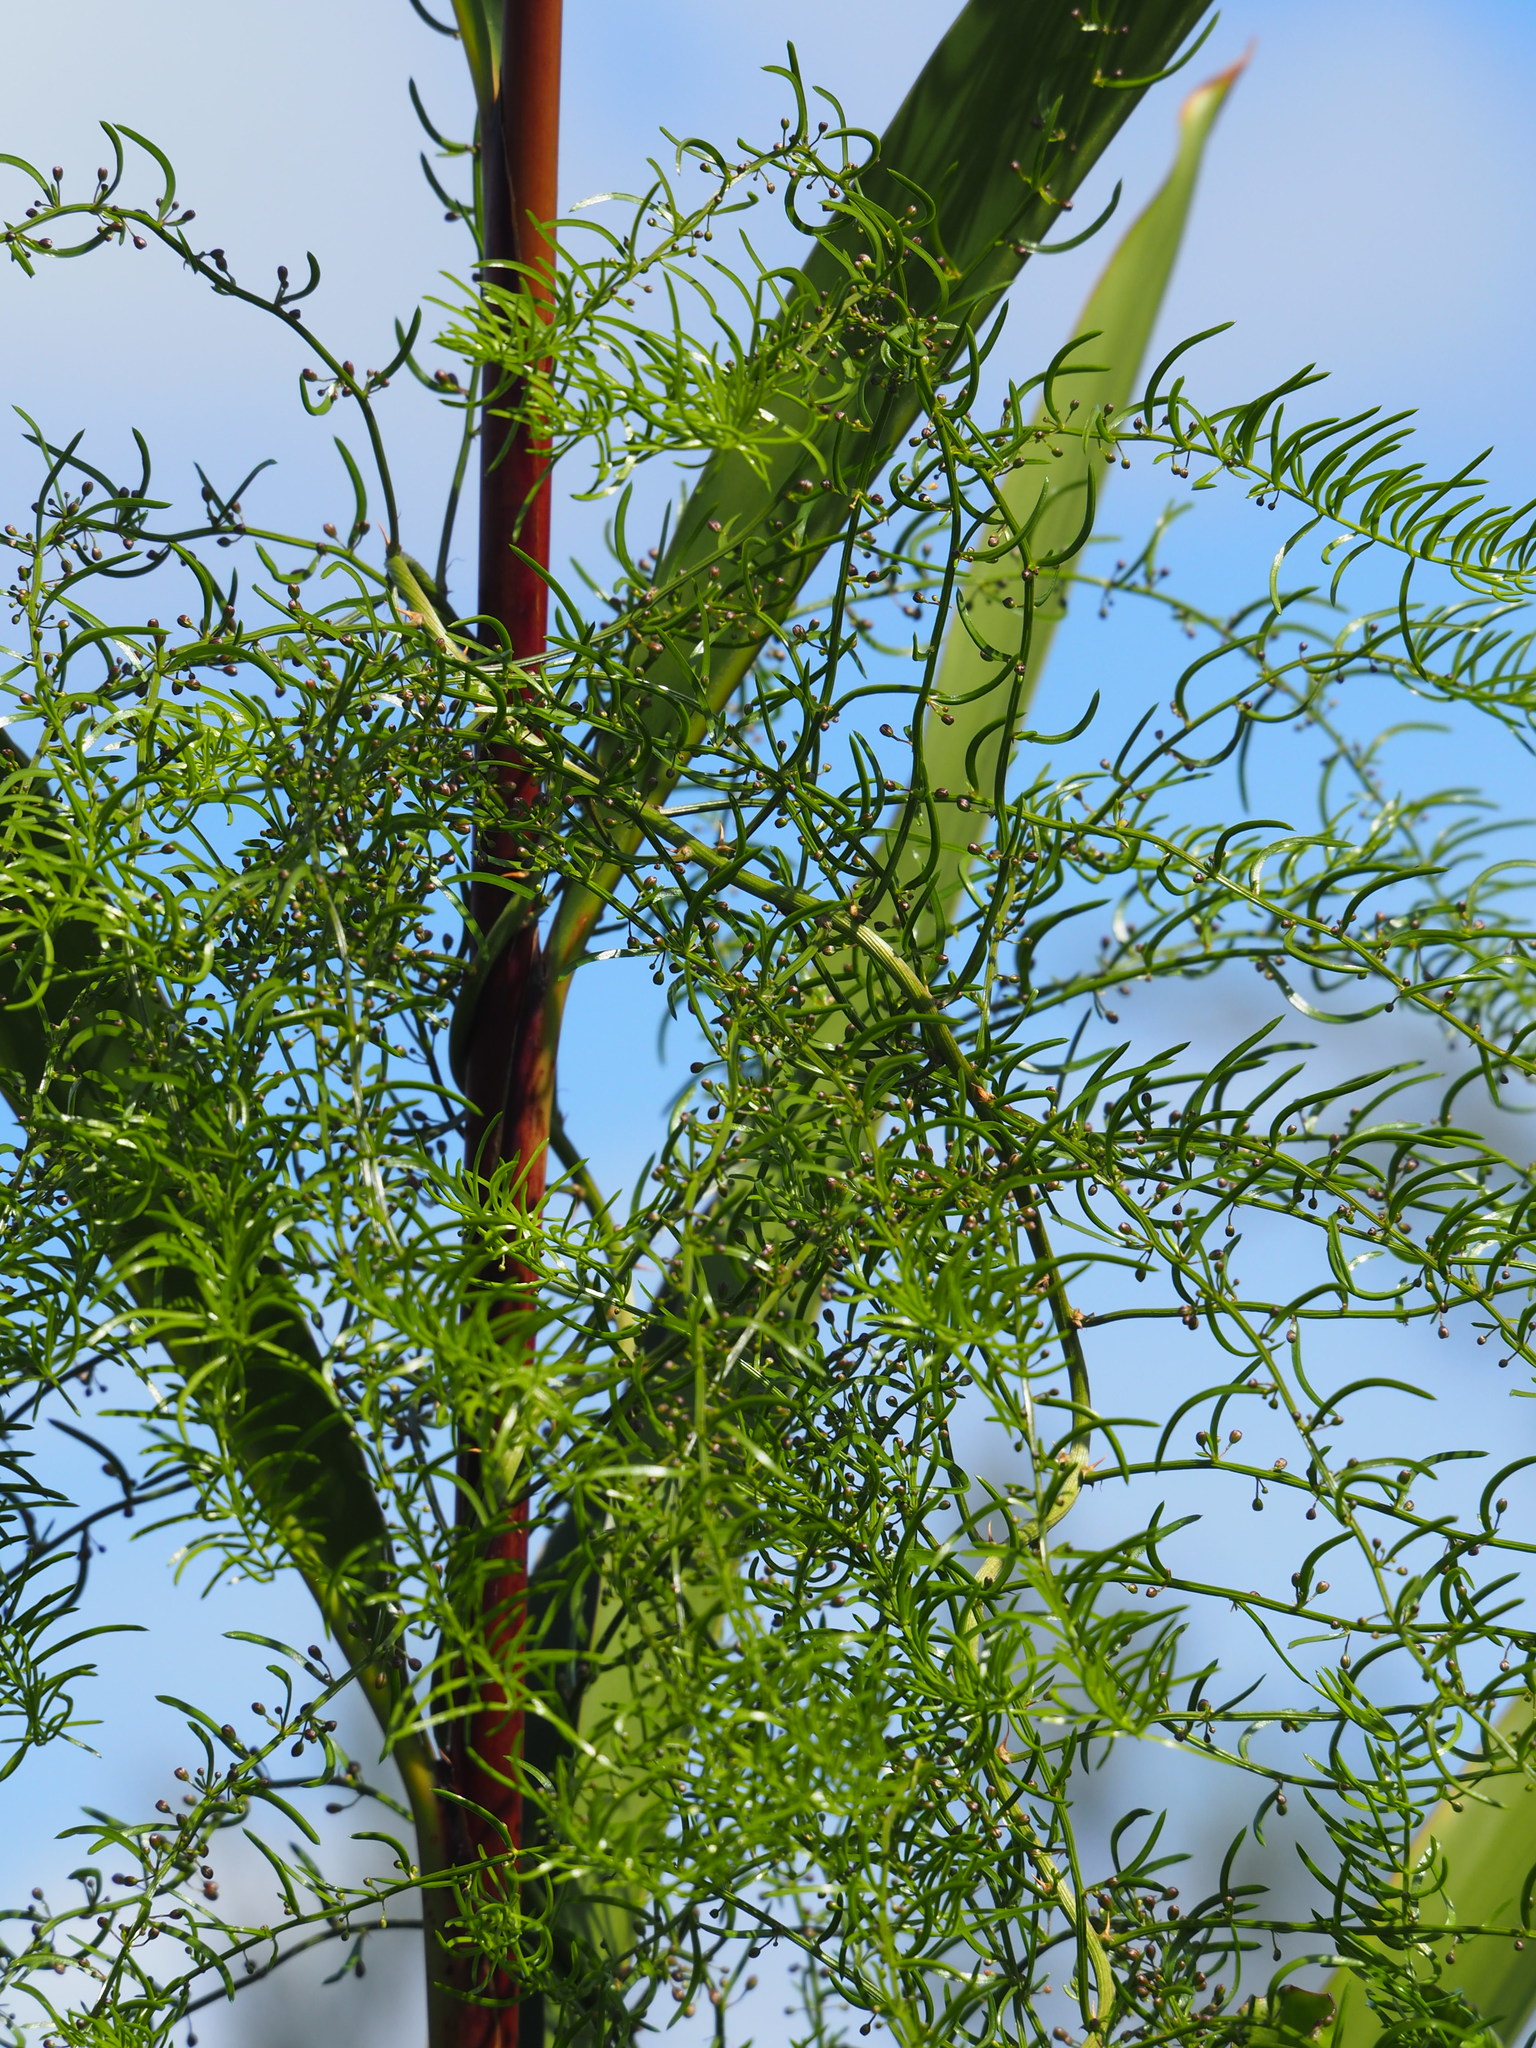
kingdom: Plantae
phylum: Tracheophyta
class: Liliopsida
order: Asparagales
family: Asparagaceae
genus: Asparagus
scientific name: Asparagus cochinchinensis
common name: Chinese asparagus
